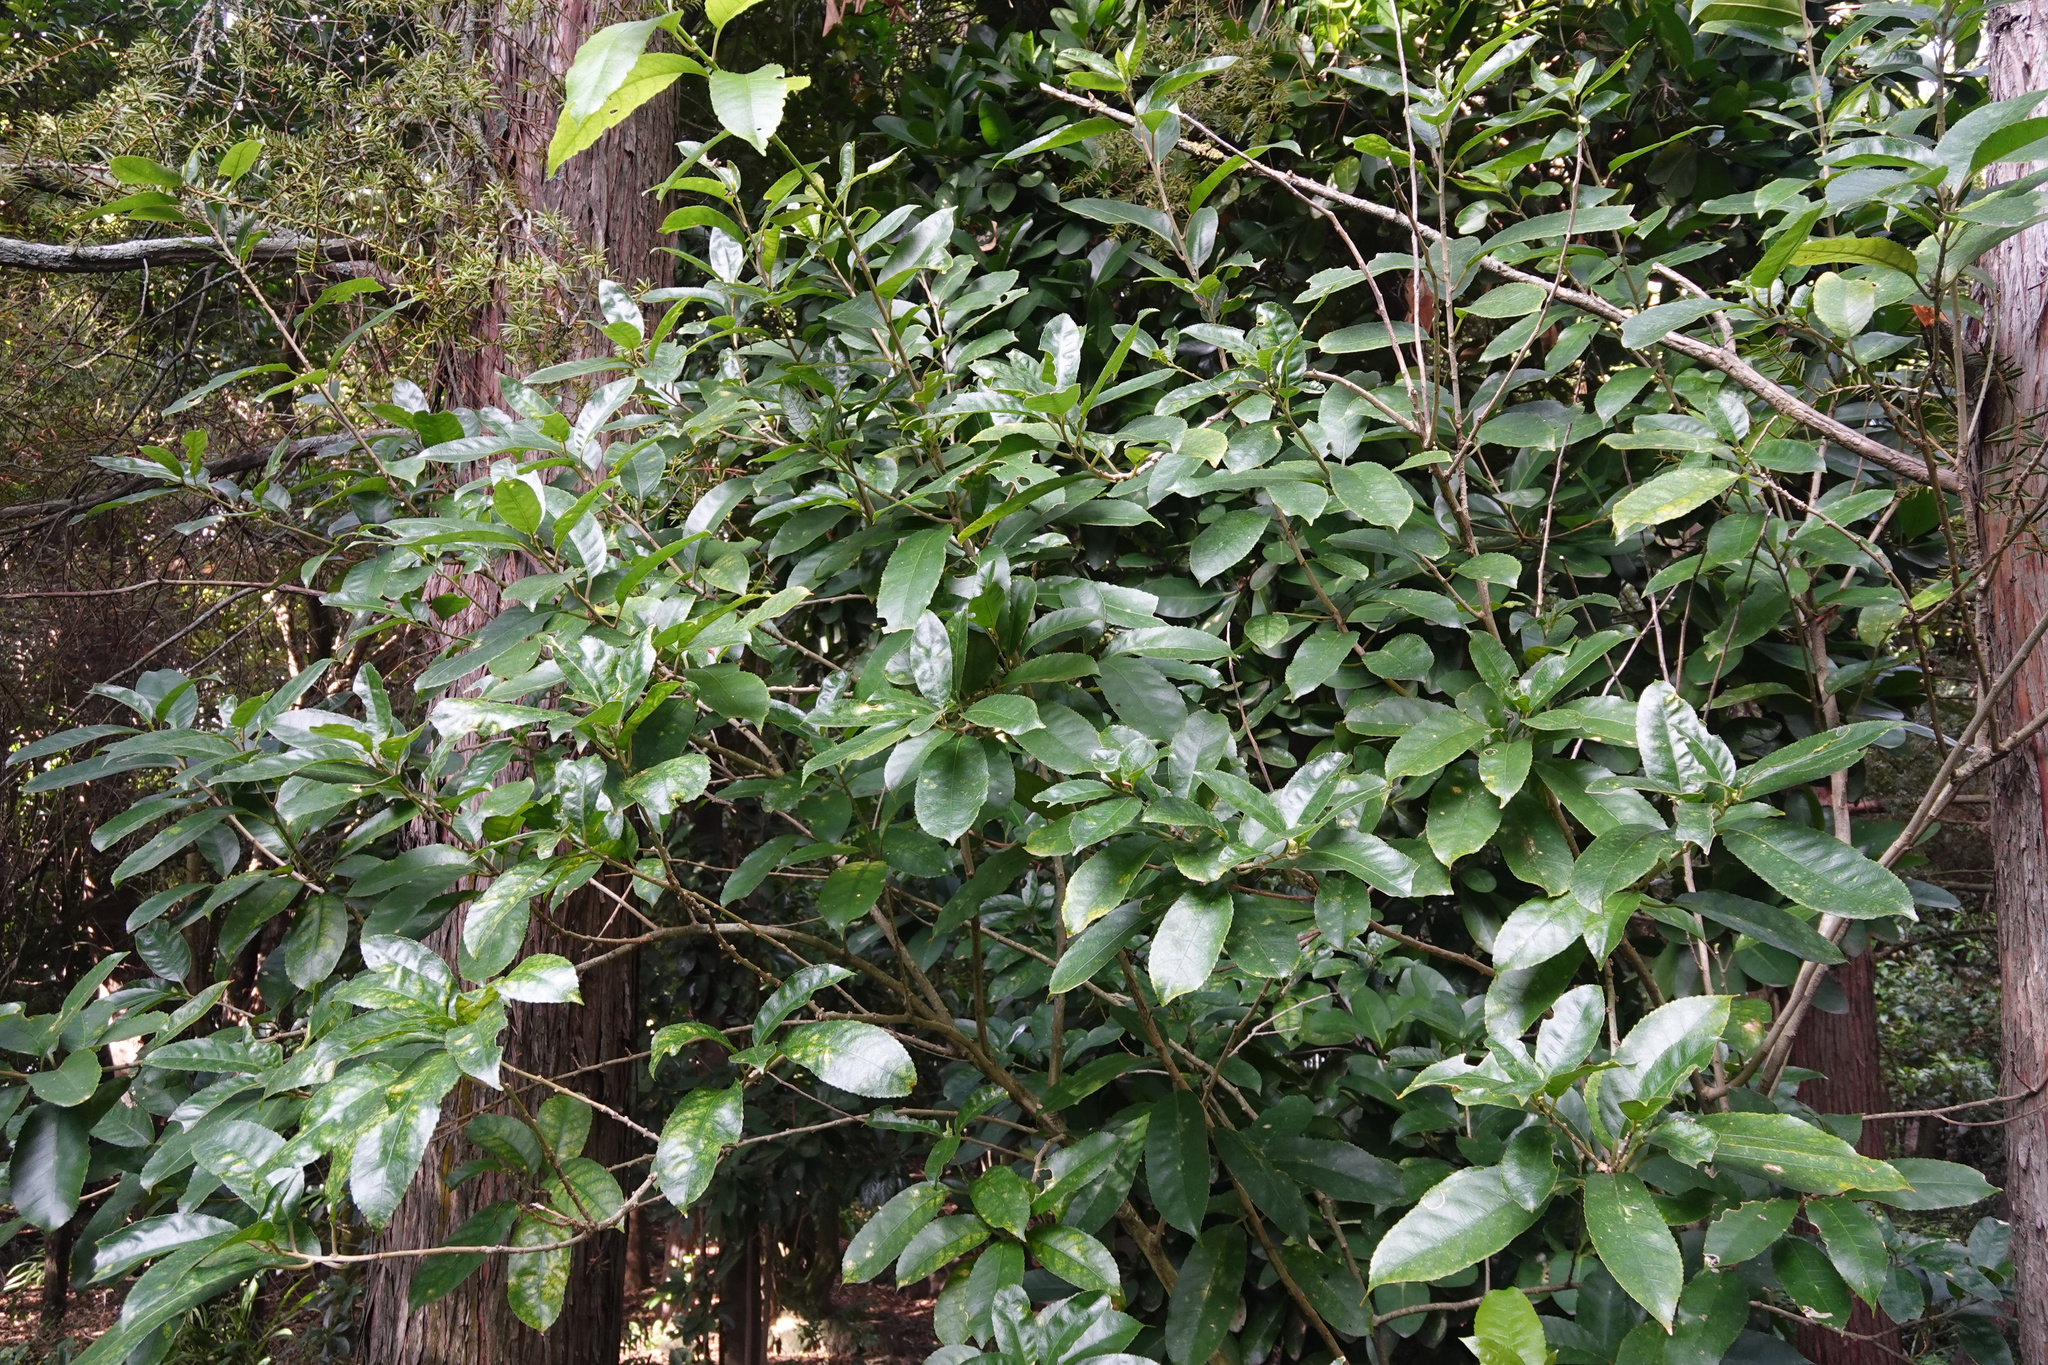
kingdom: Plantae
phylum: Tracheophyta
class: Magnoliopsida
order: Malpighiales
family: Violaceae
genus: Melicytus
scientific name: Melicytus ramiflorus
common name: Mahoe
